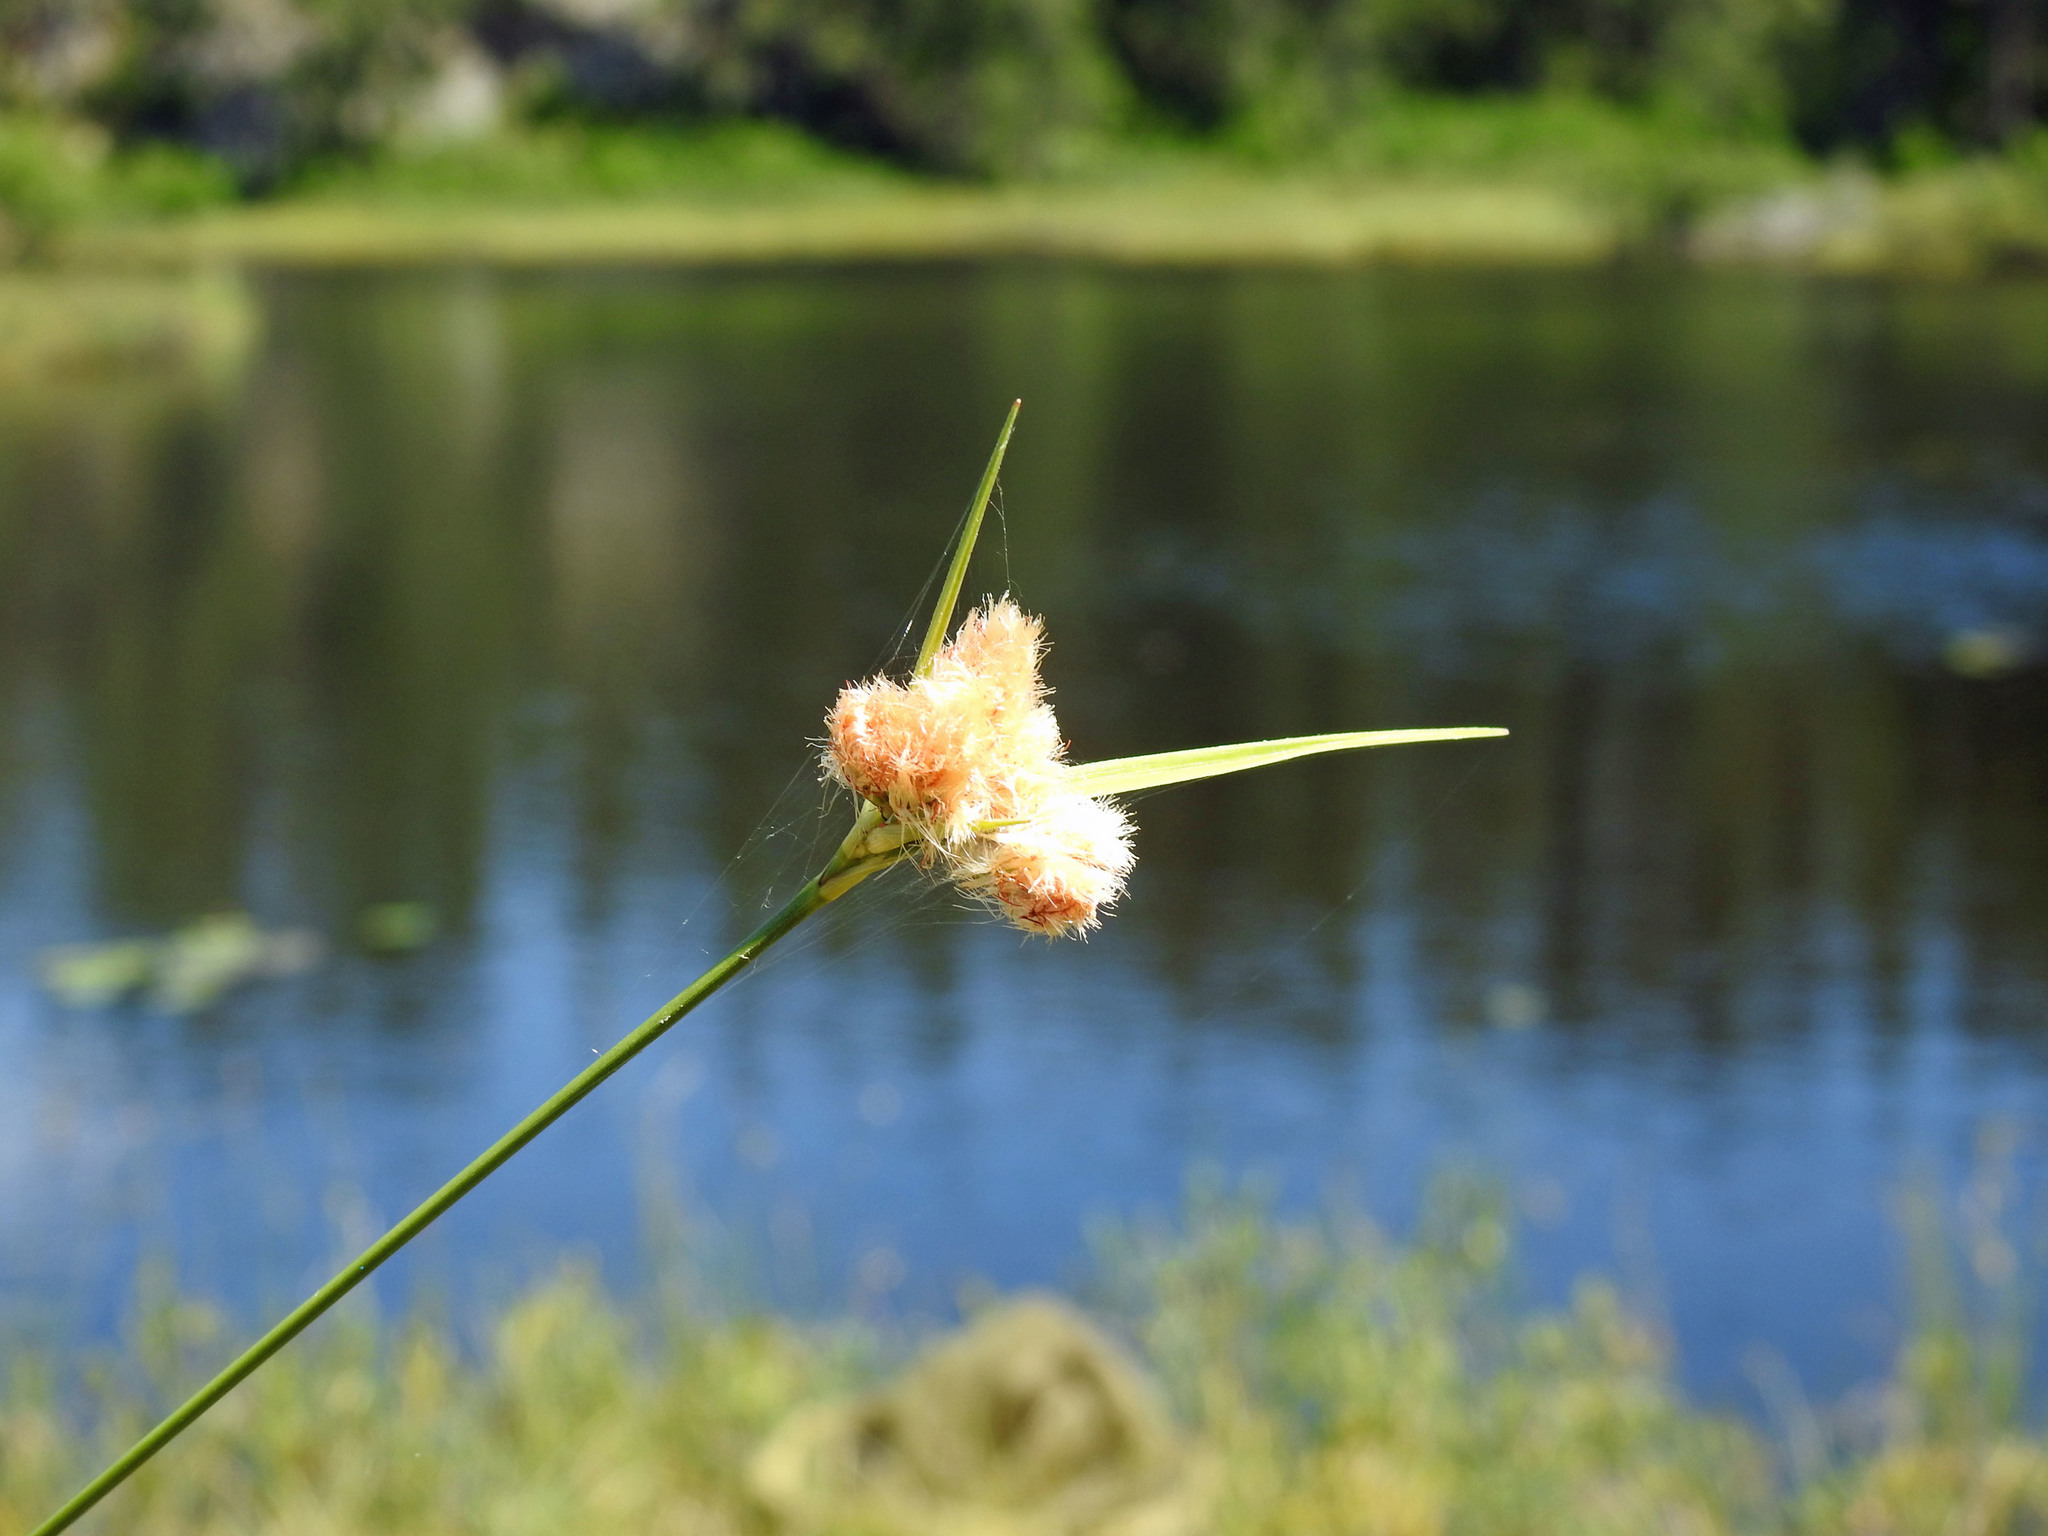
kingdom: Plantae
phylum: Tracheophyta
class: Liliopsida
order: Poales
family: Cyperaceae
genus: Eriophorum
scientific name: Eriophorum virginicum
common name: Tawny cottongrass
